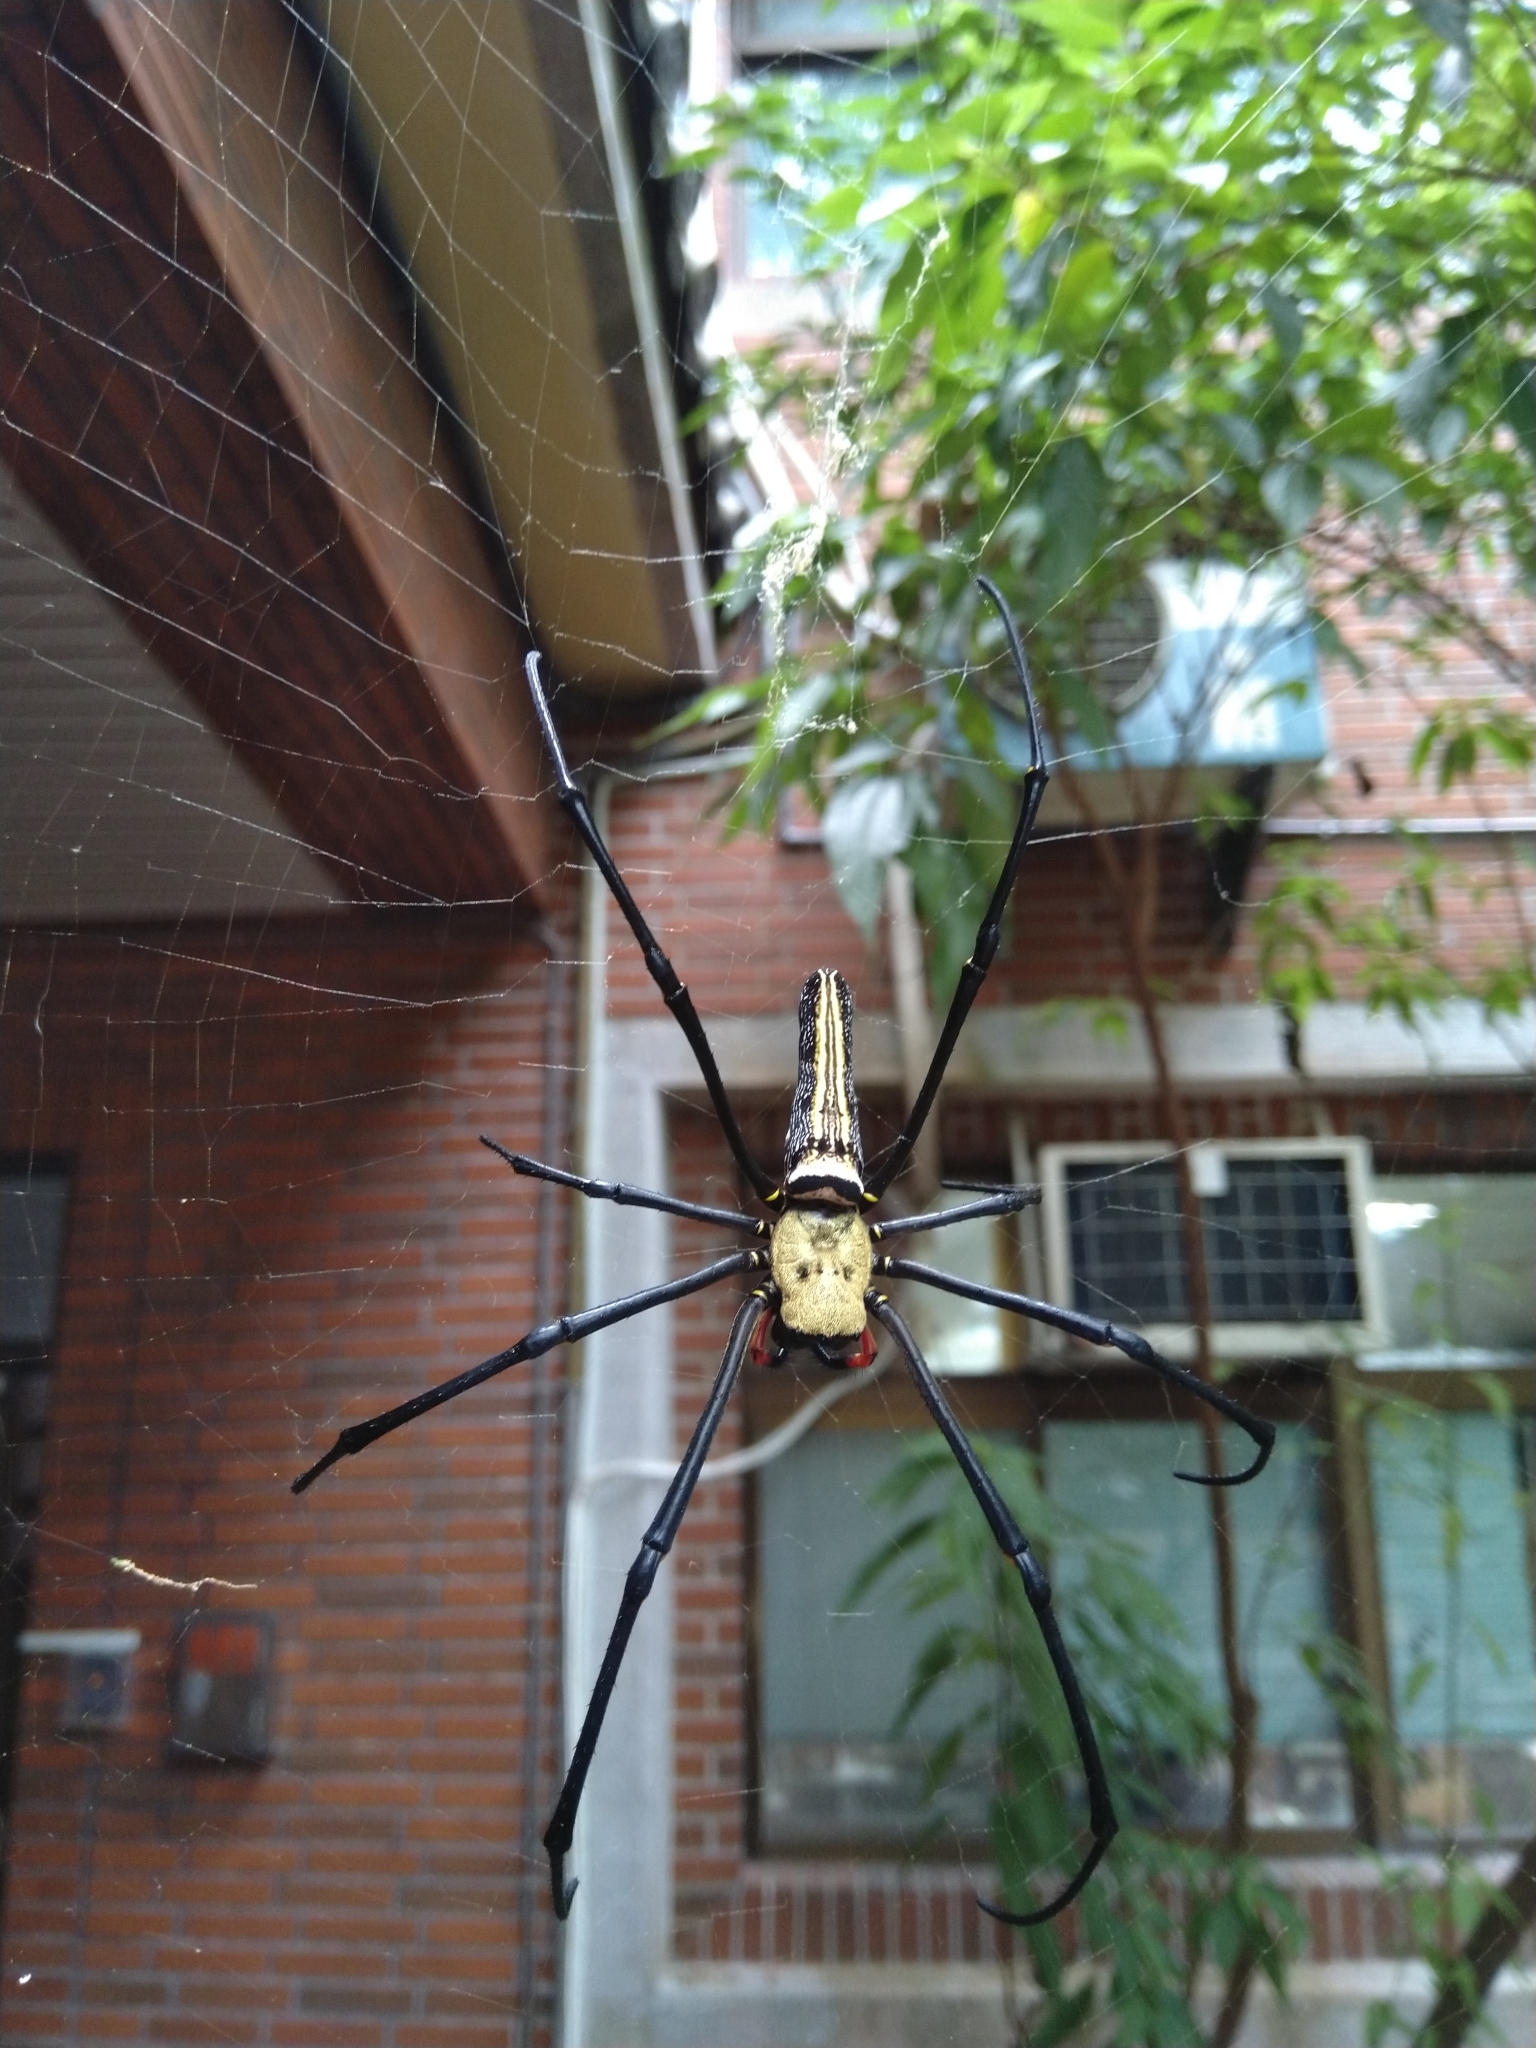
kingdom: Animalia
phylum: Arthropoda
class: Arachnida
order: Araneae
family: Araneidae
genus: Nephila
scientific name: Nephila pilipes
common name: Giant golden orb weaver
